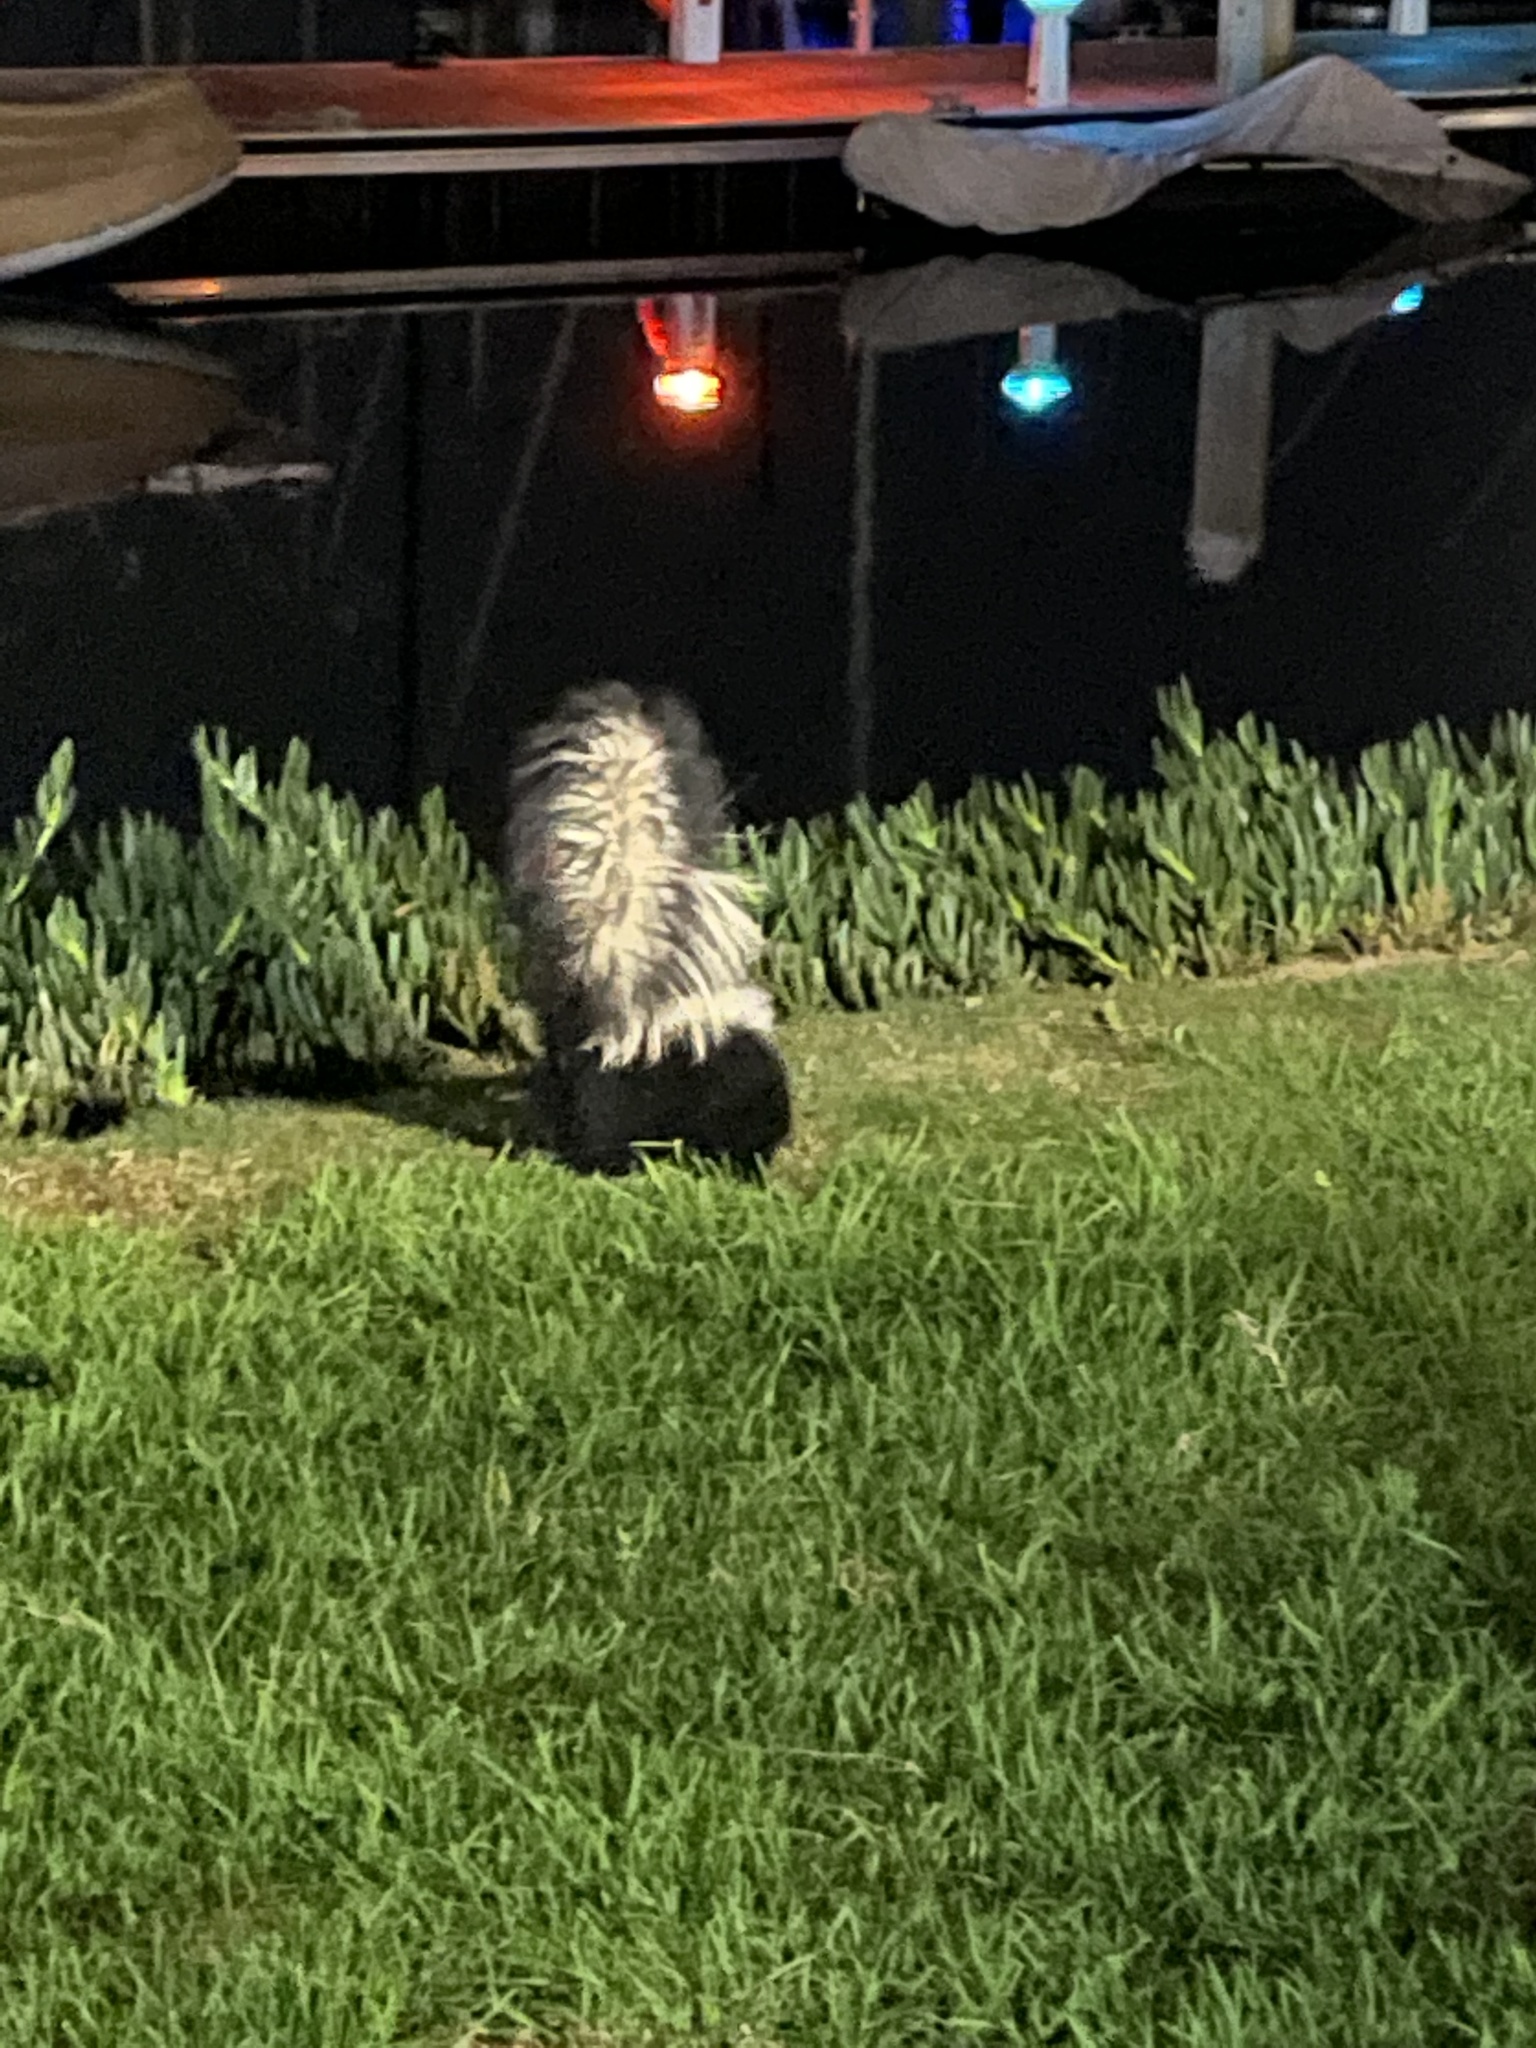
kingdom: Animalia
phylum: Chordata
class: Mammalia
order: Carnivora
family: Mephitidae
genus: Mephitis
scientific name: Mephitis mephitis
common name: Striped skunk
